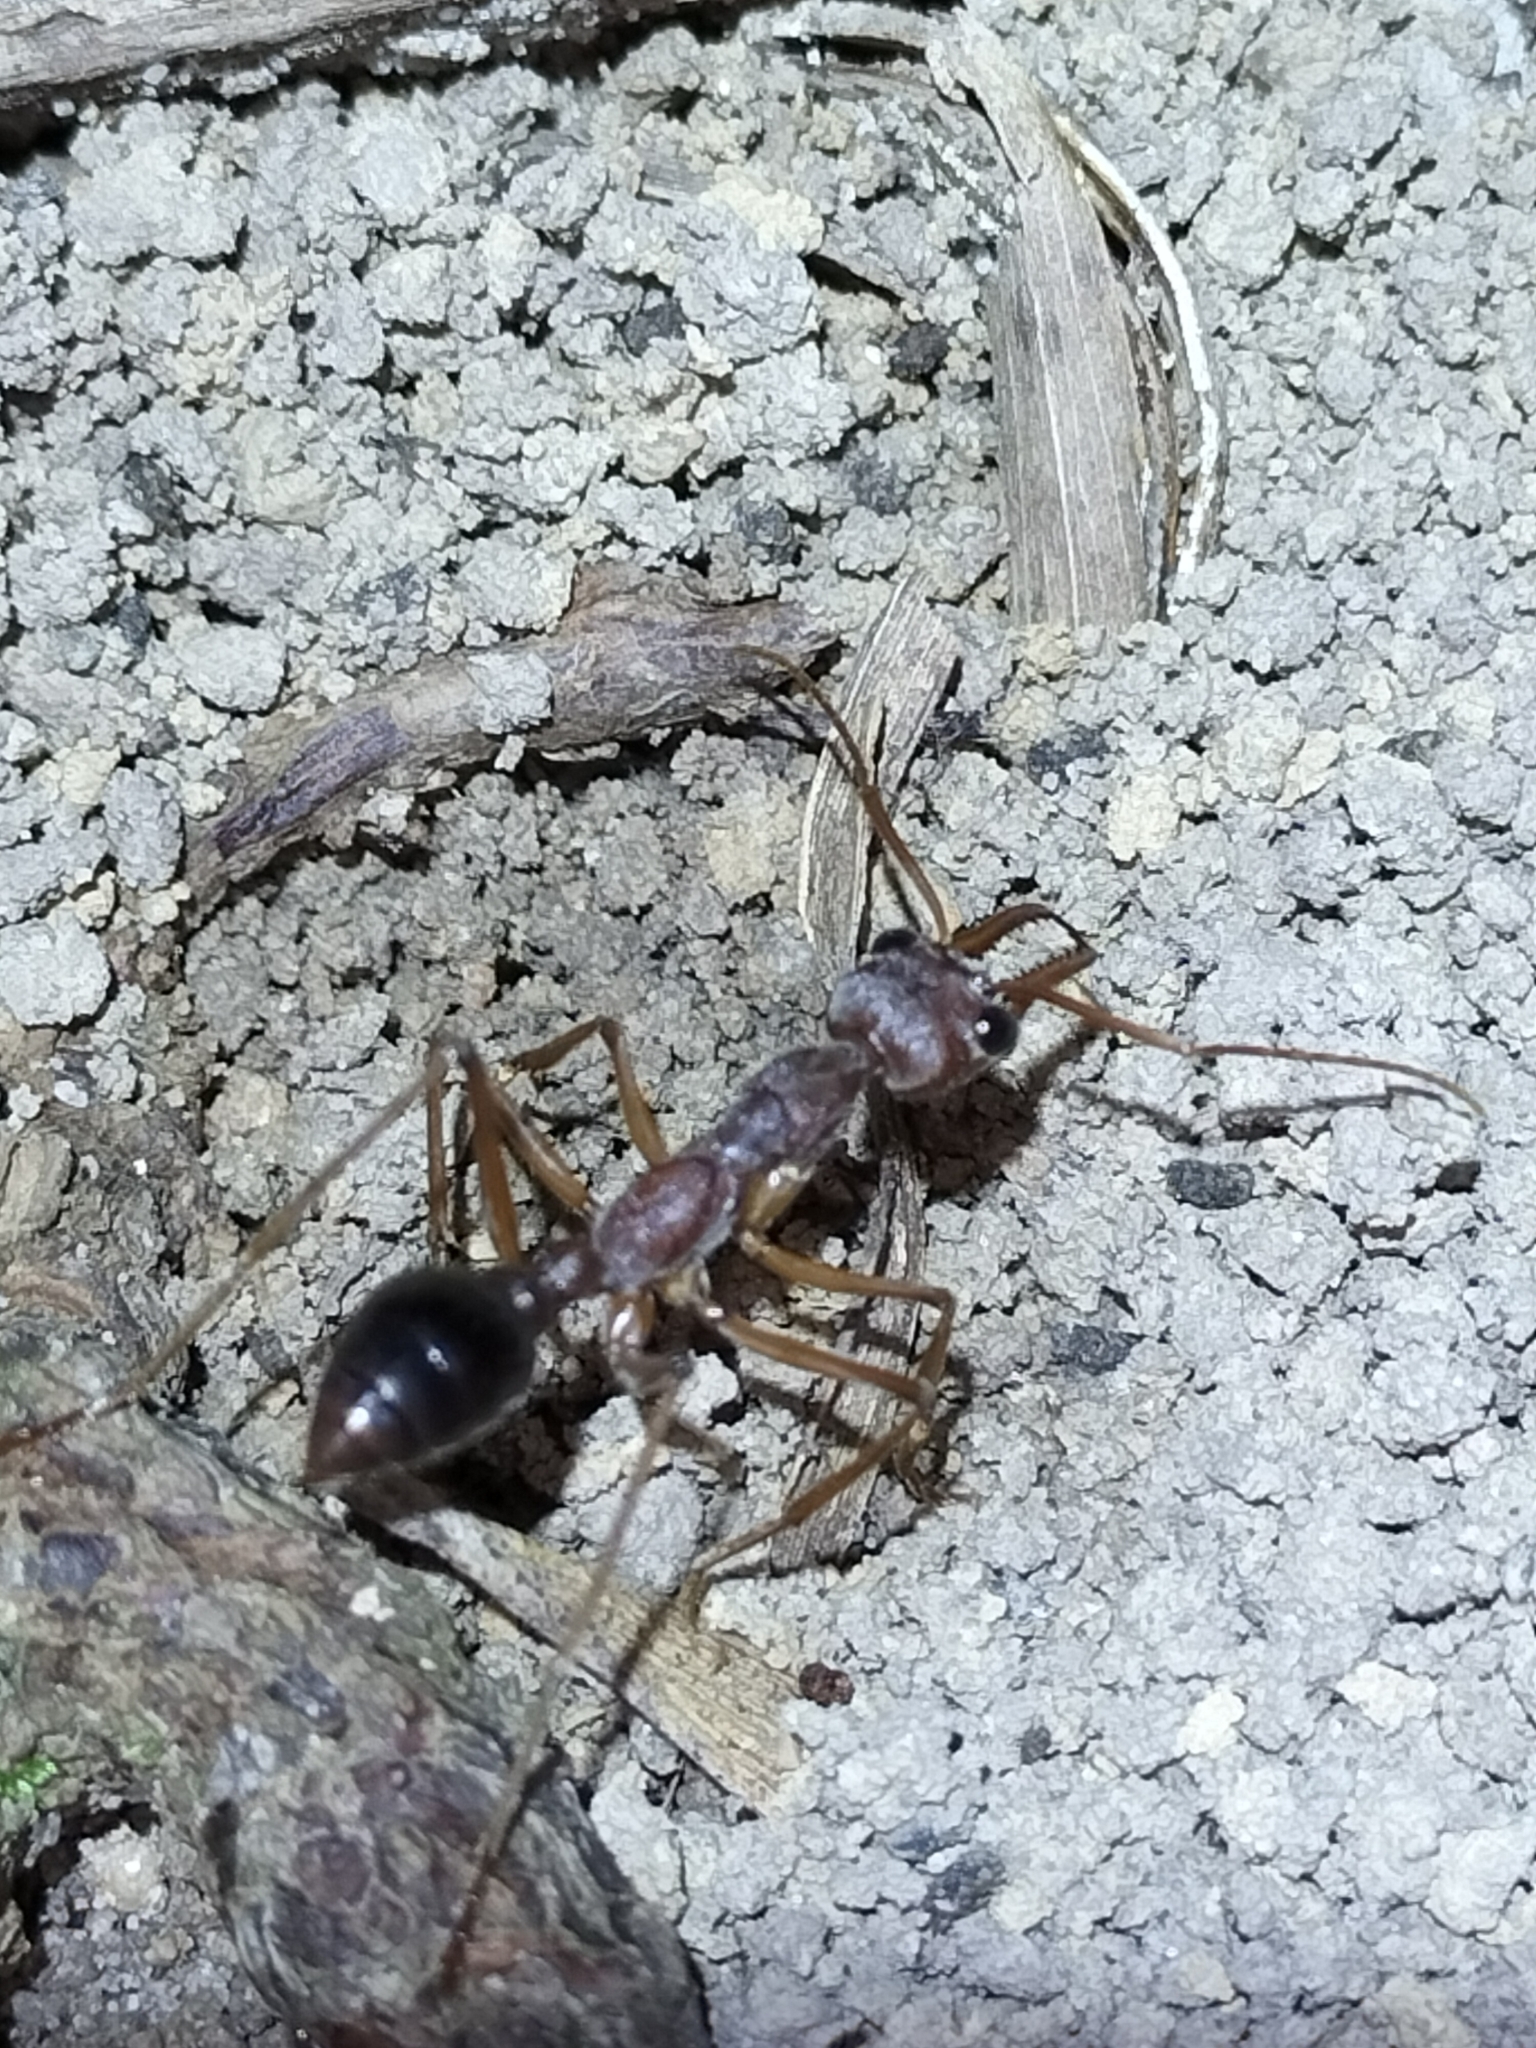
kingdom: Animalia
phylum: Arthropoda
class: Insecta
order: Hymenoptera
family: Formicidae
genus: Myrmecia
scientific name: Myrmecia mjobergi
